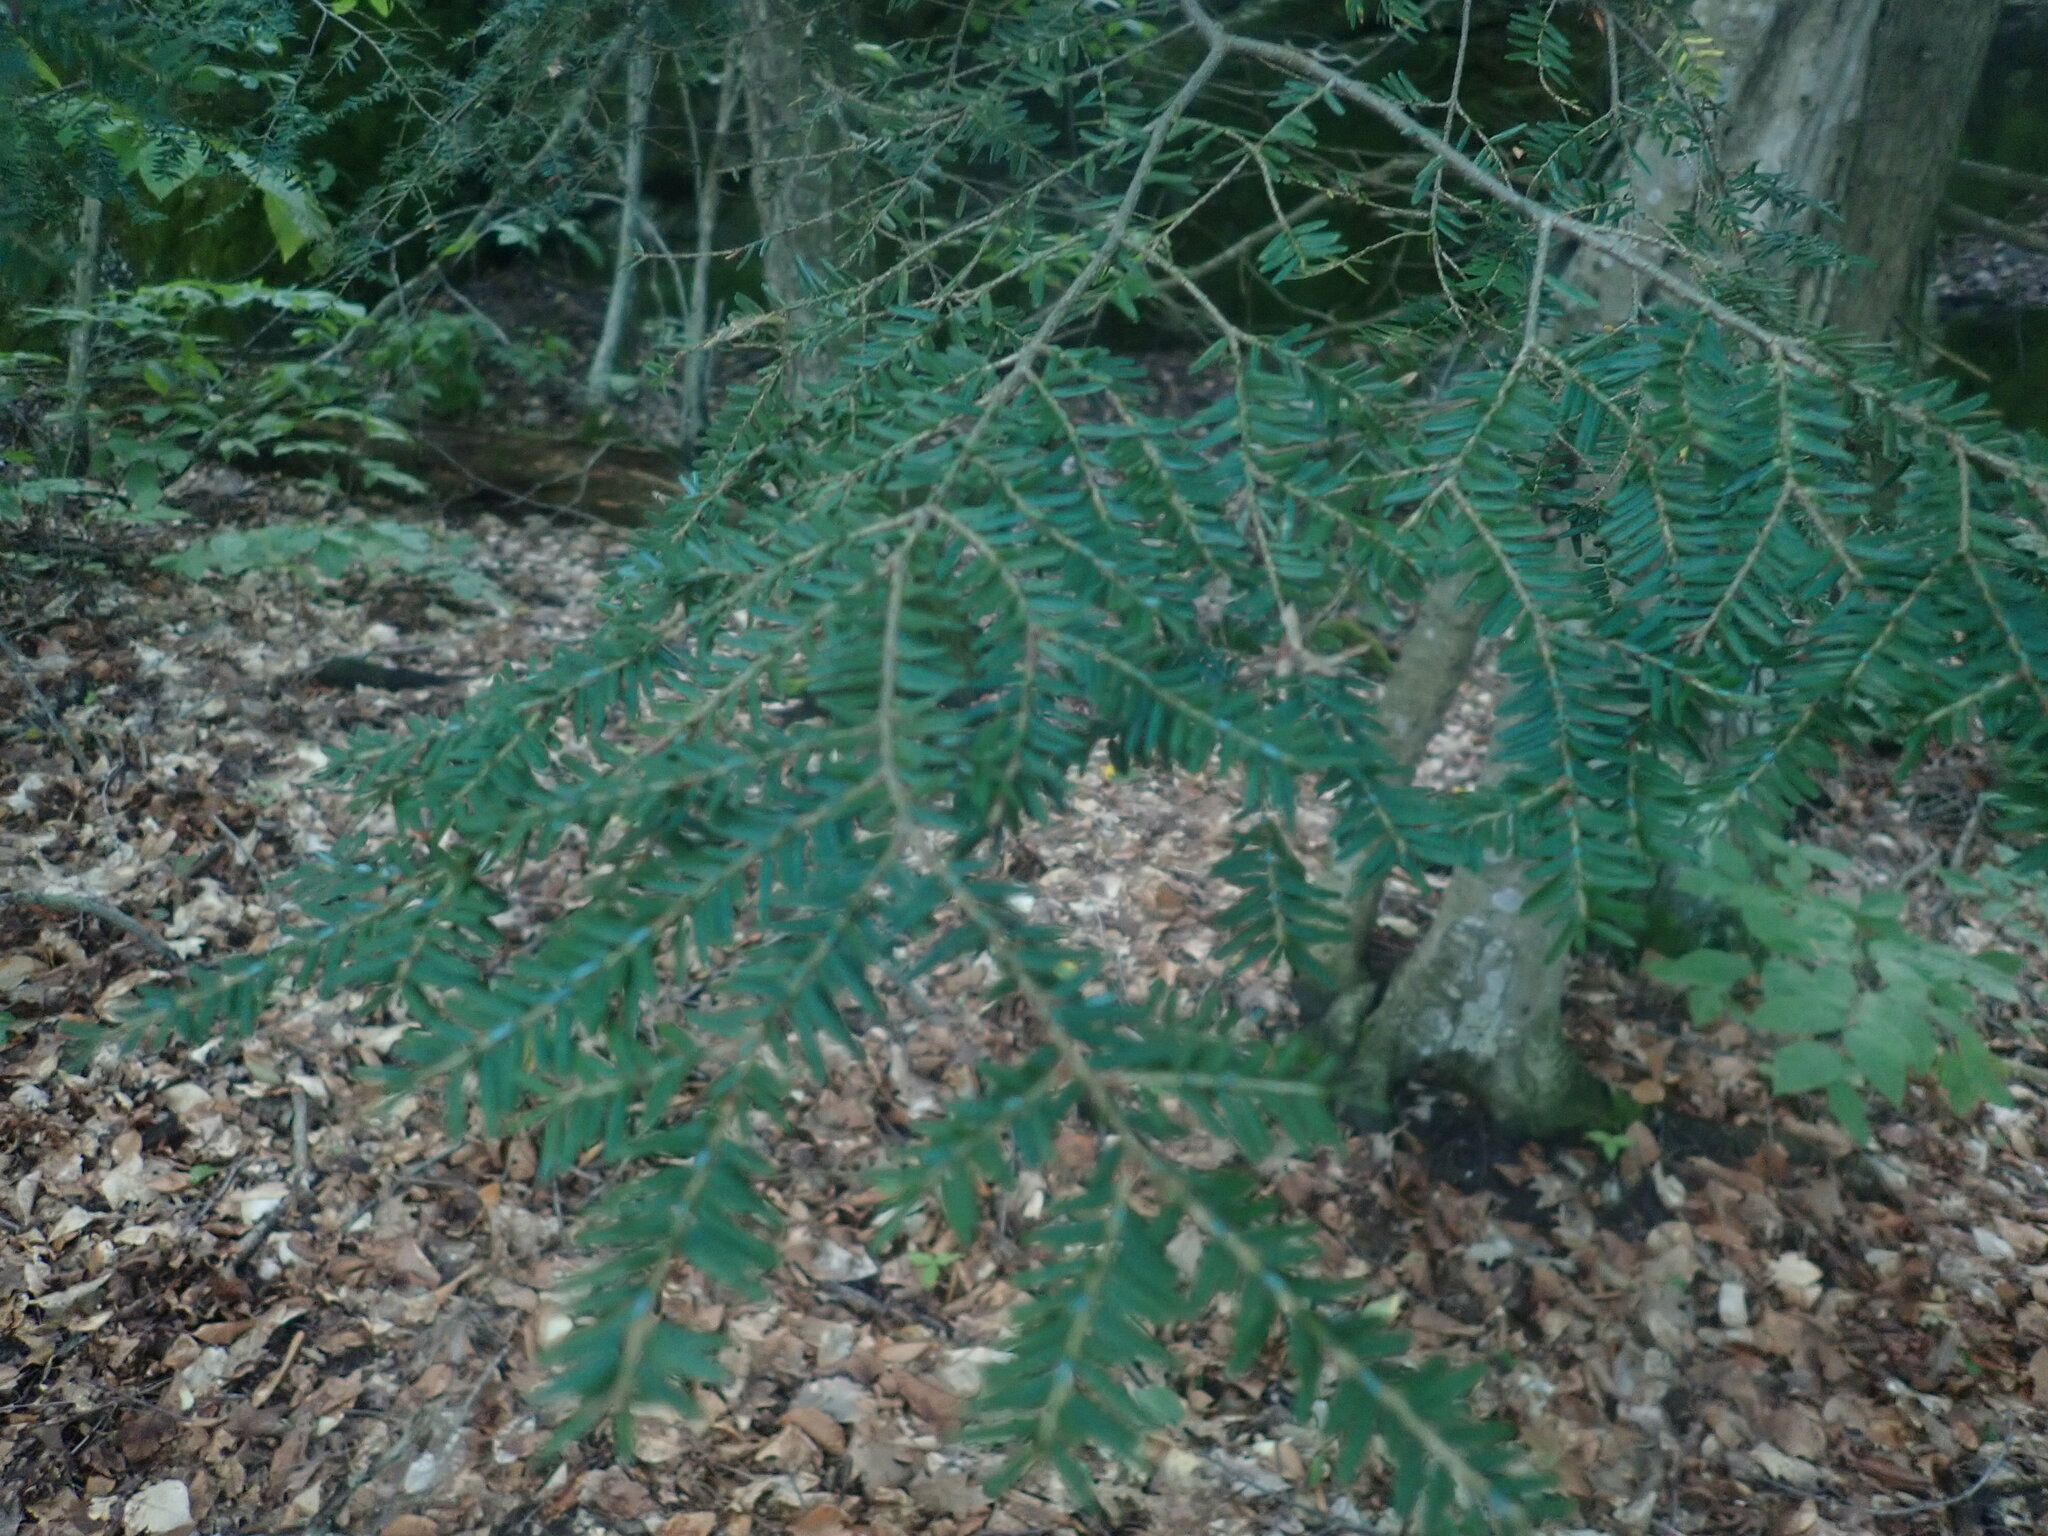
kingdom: Plantae
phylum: Tracheophyta
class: Pinopsida
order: Pinales
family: Pinaceae
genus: Tsuga
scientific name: Tsuga canadensis
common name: Eastern hemlock
